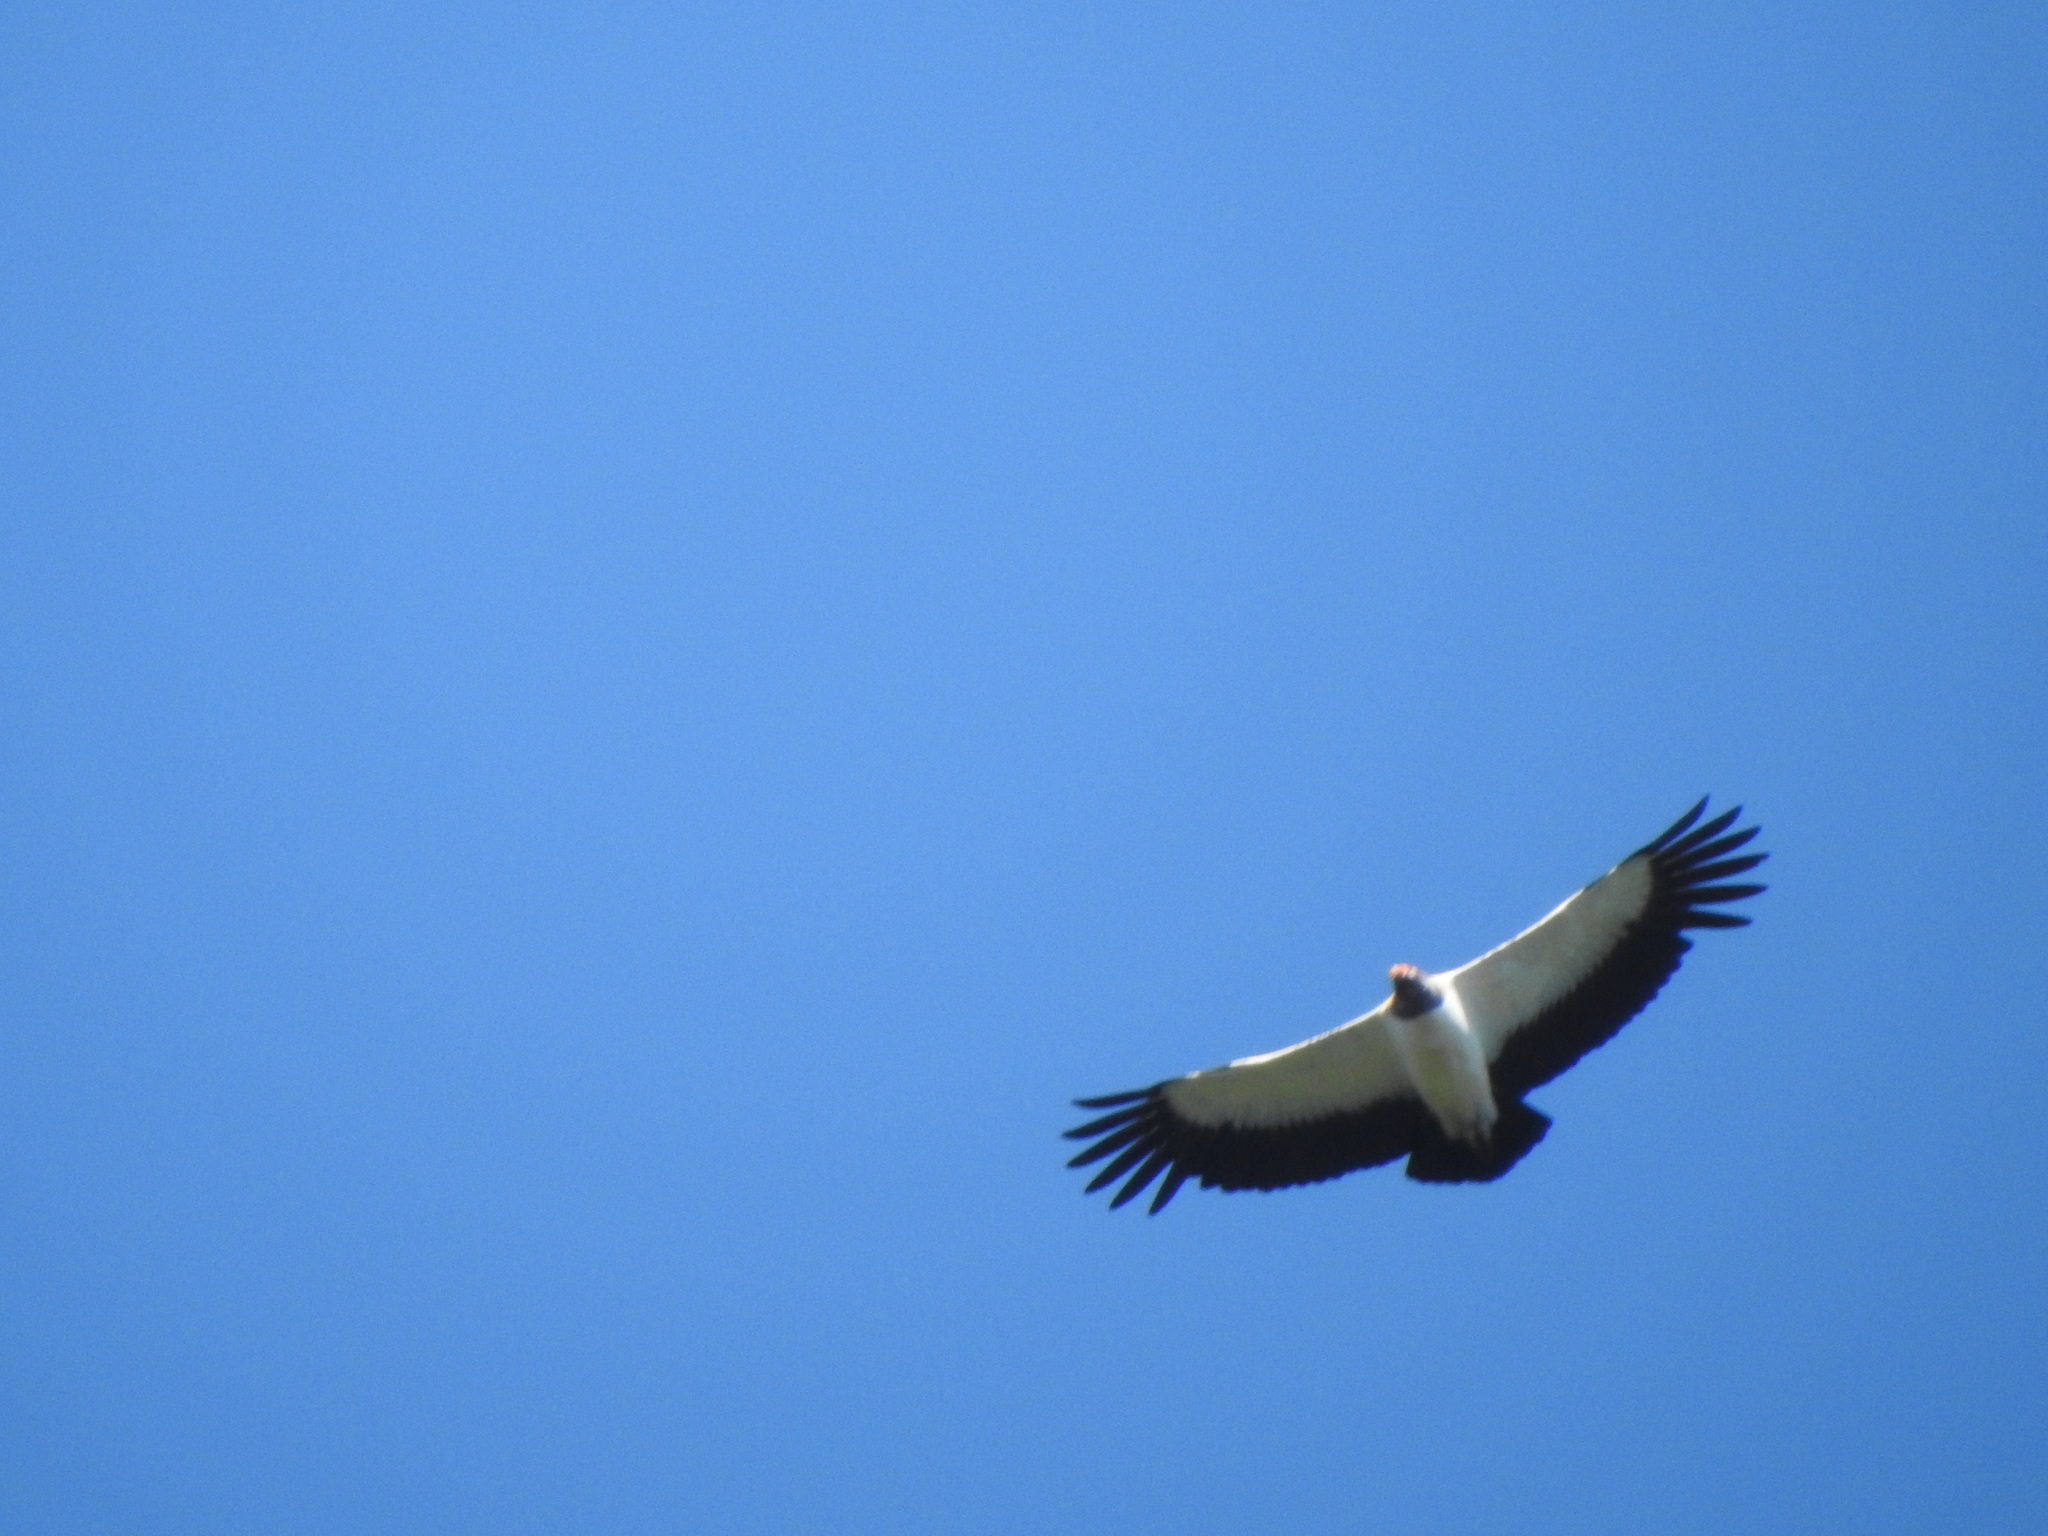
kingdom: Animalia
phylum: Chordata
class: Aves
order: Accipitriformes
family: Cathartidae
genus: Sarcoramphus
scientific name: Sarcoramphus papa
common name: King vulture
